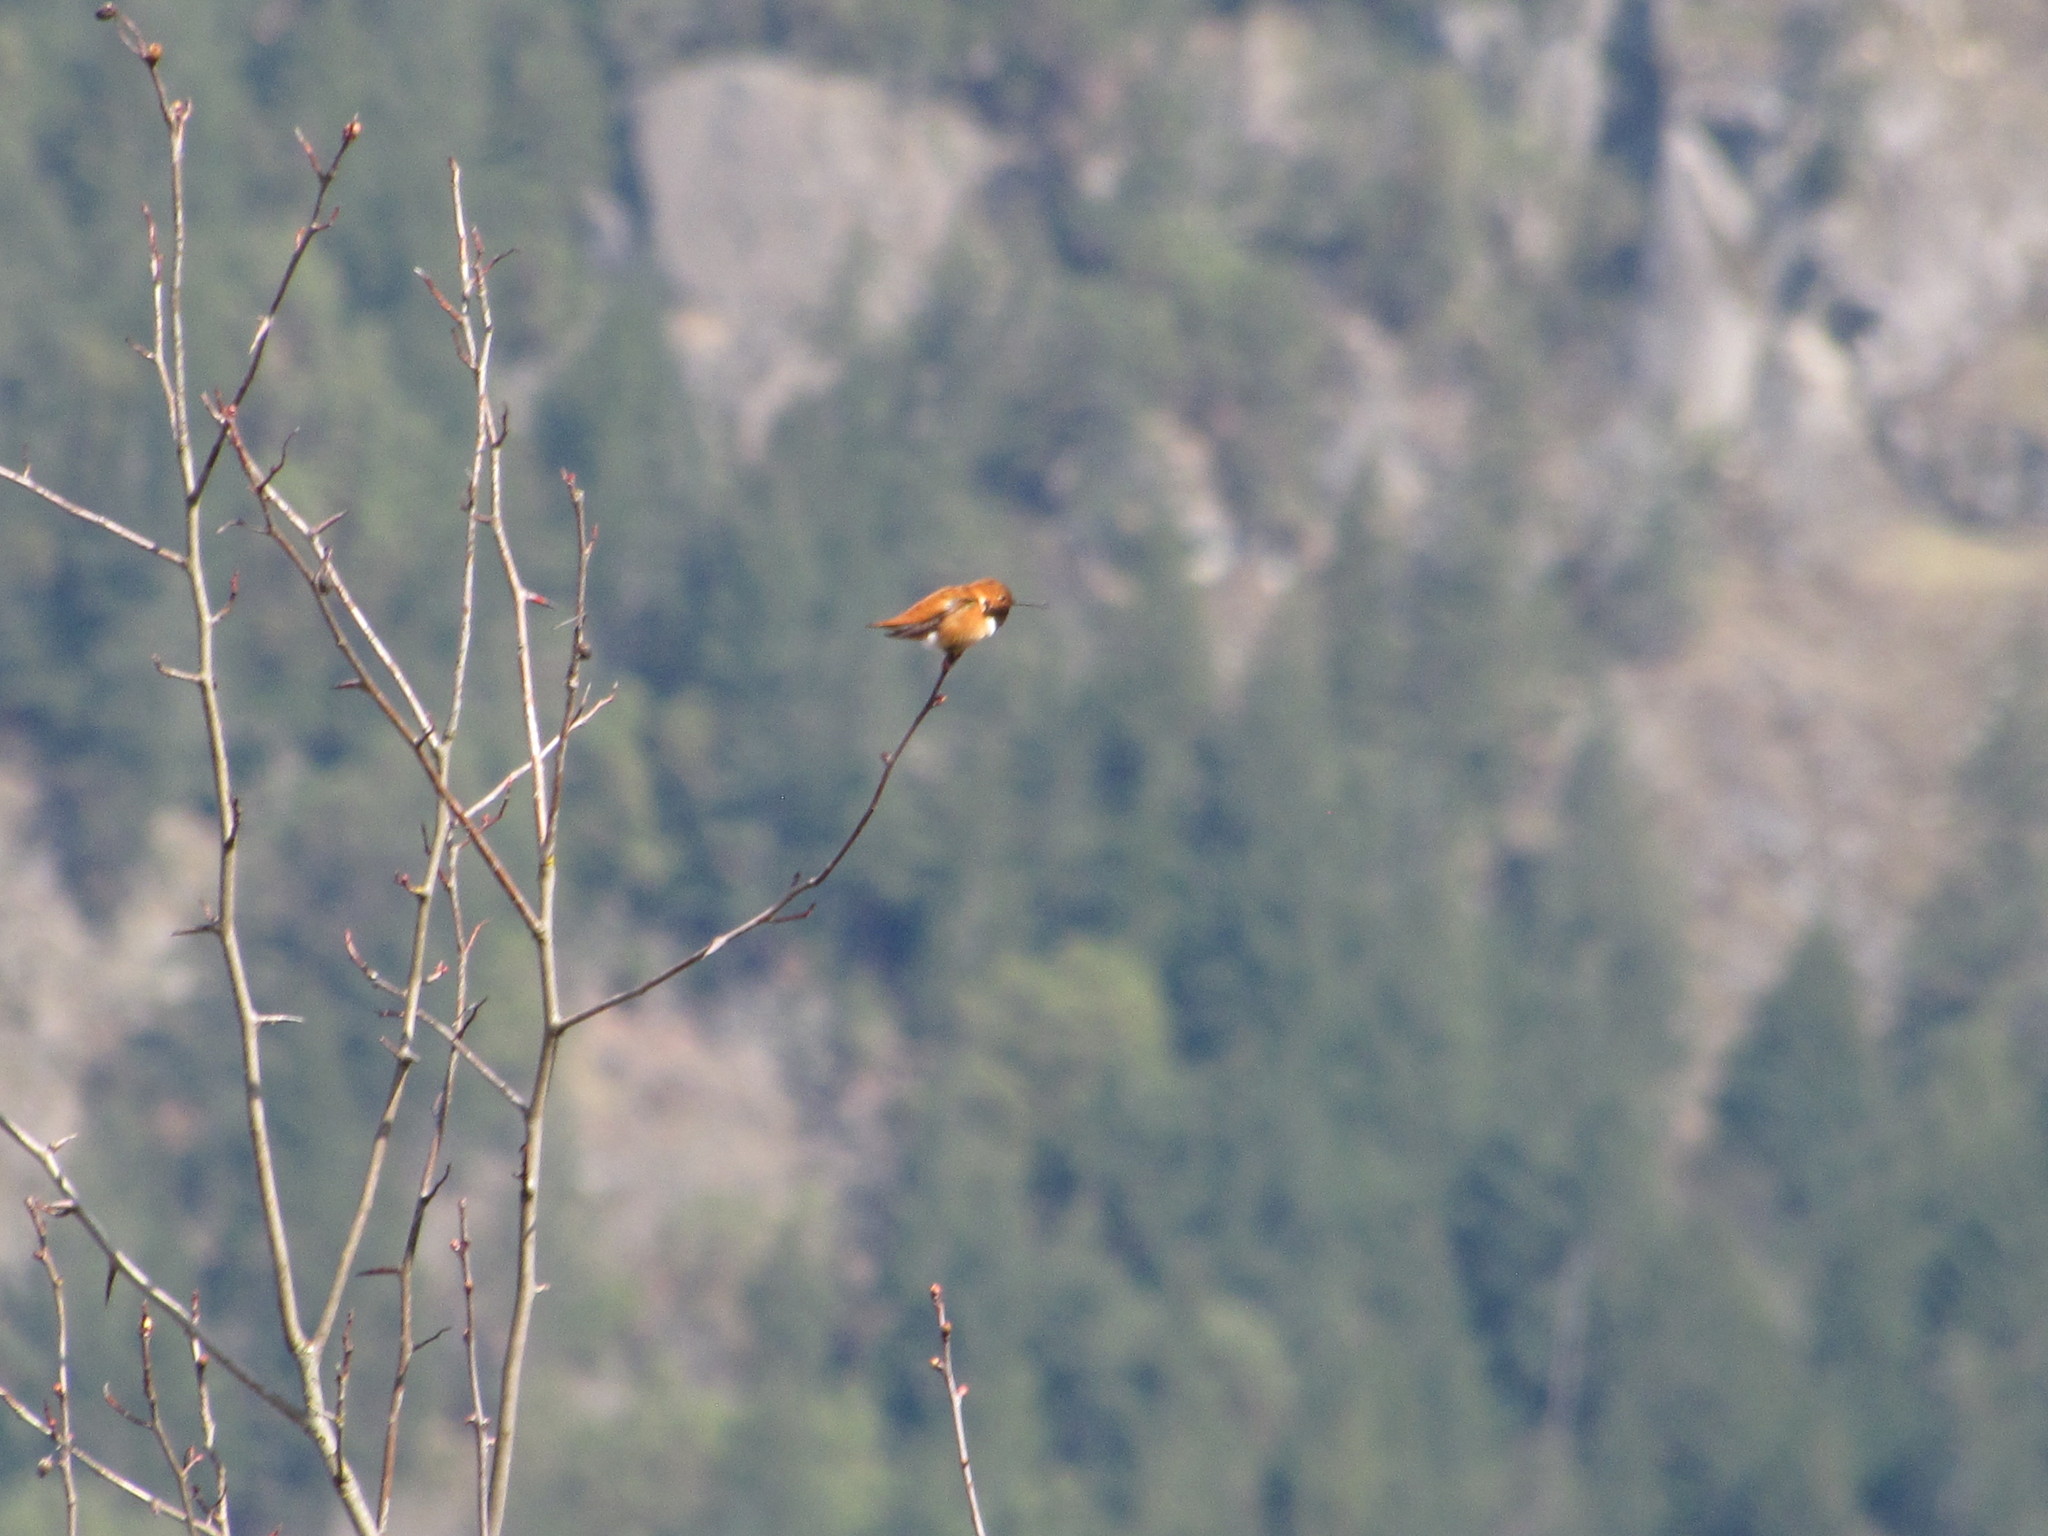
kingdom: Animalia
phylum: Chordata
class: Aves
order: Apodiformes
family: Trochilidae
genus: Selasphorus
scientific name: Selasphorus rufus
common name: Rufous hummingbird
